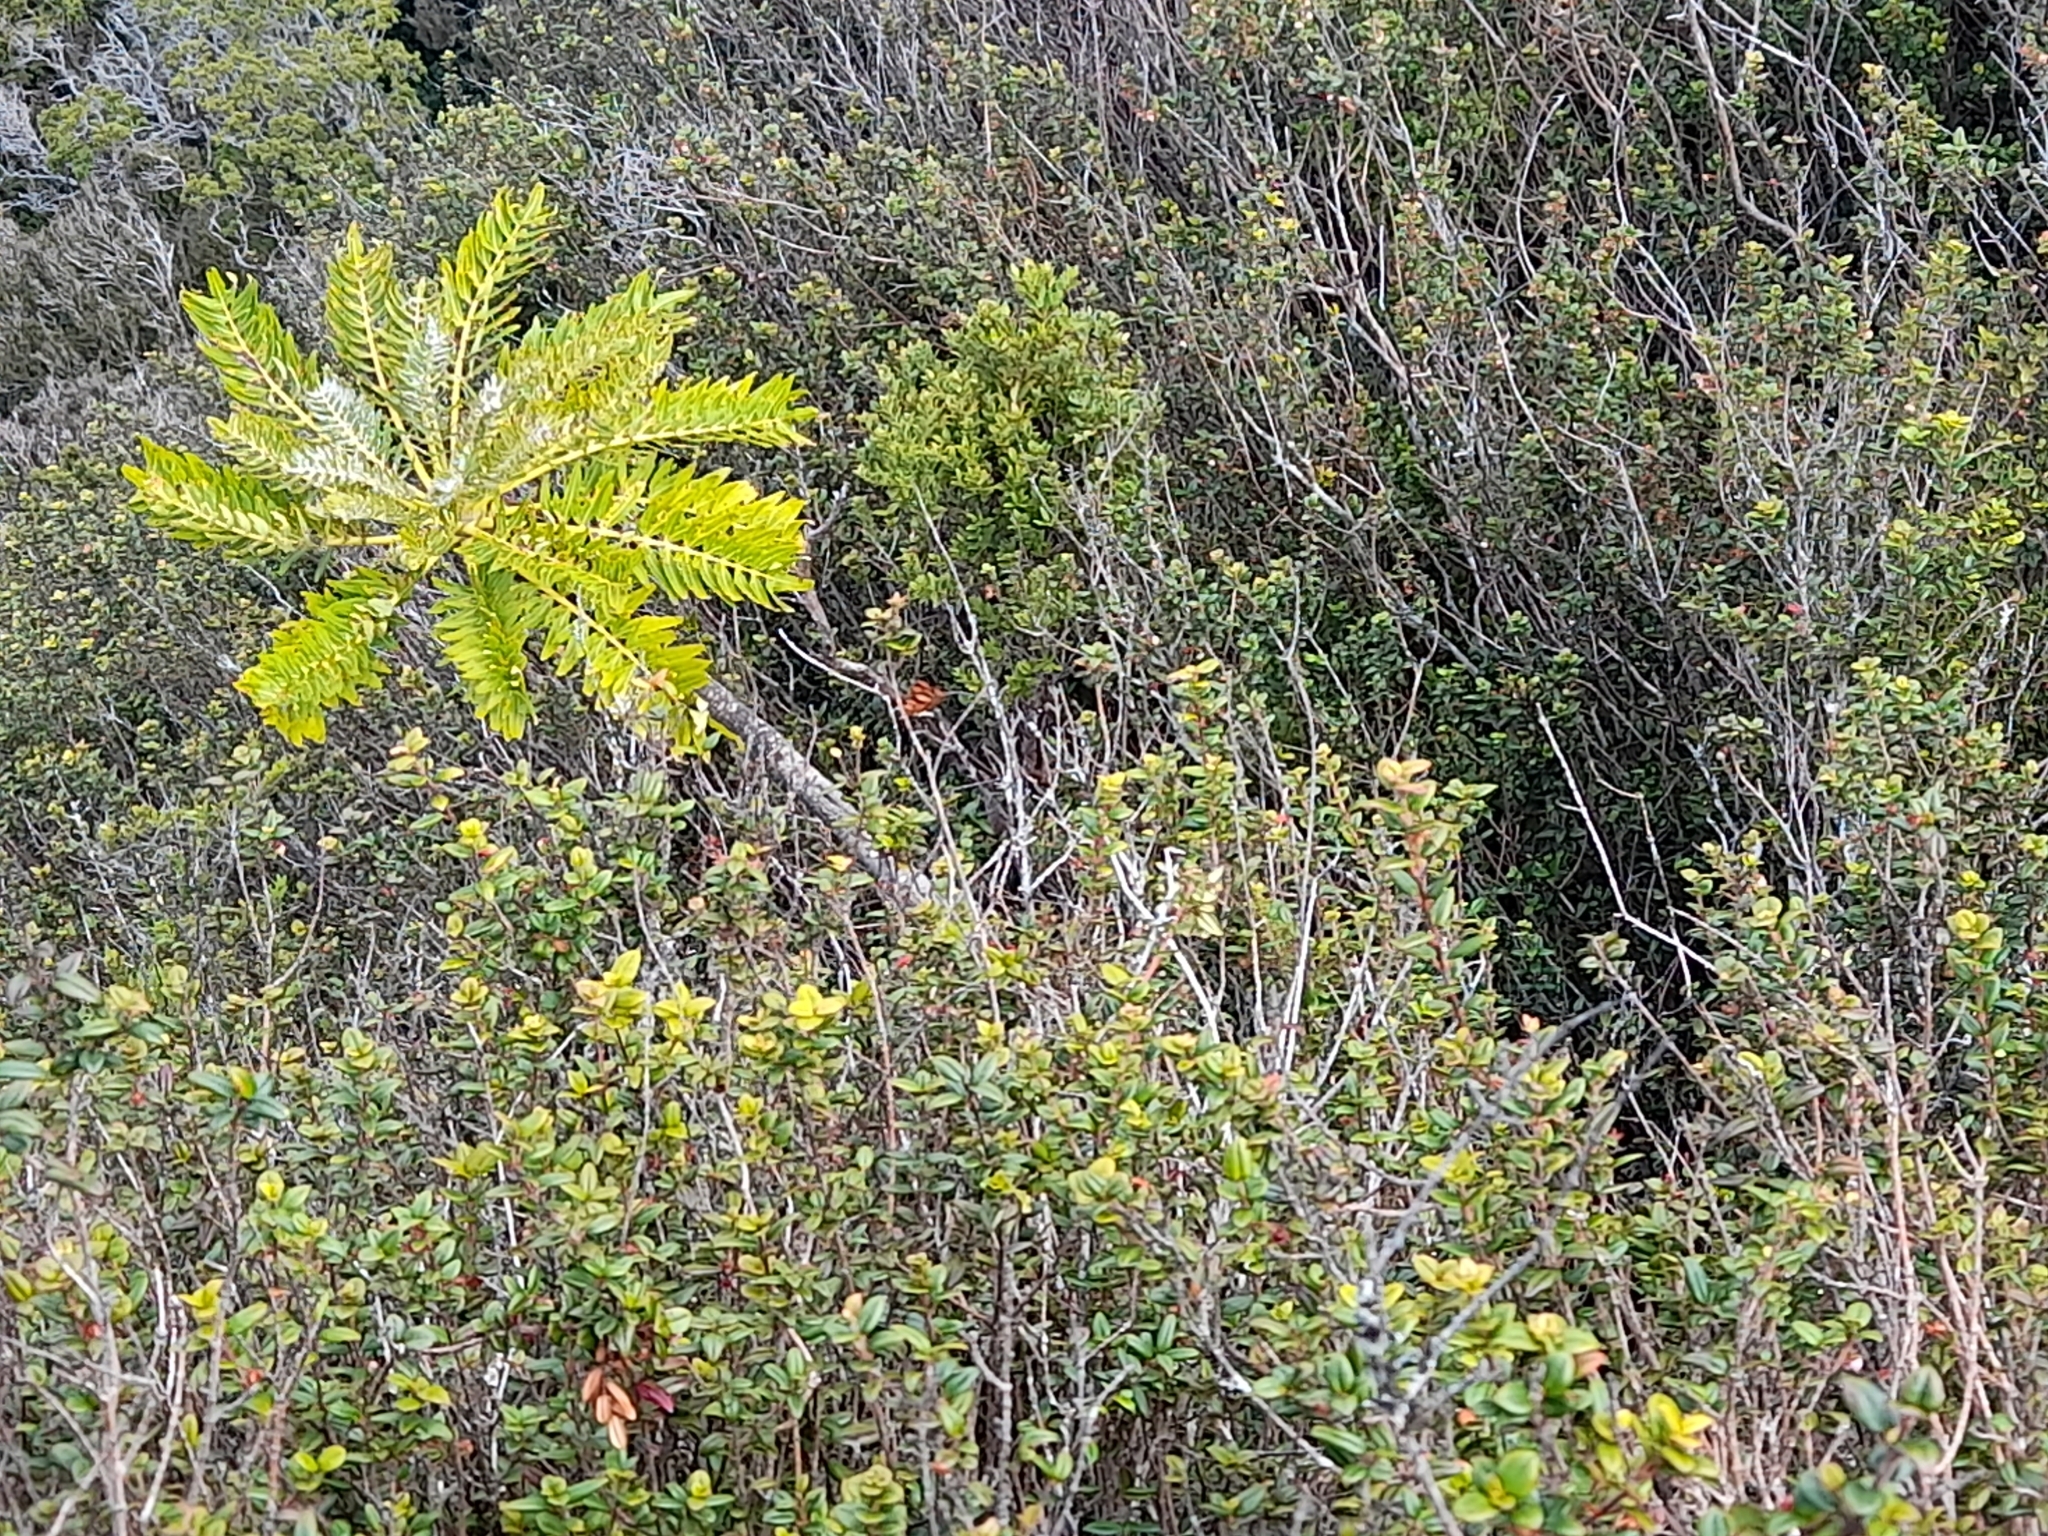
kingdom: Plantae
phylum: Tracheophyta
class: Magnoliopsida
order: Asterales
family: Asteraceae
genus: Sonchus
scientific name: Sonchus phoeniciformis
